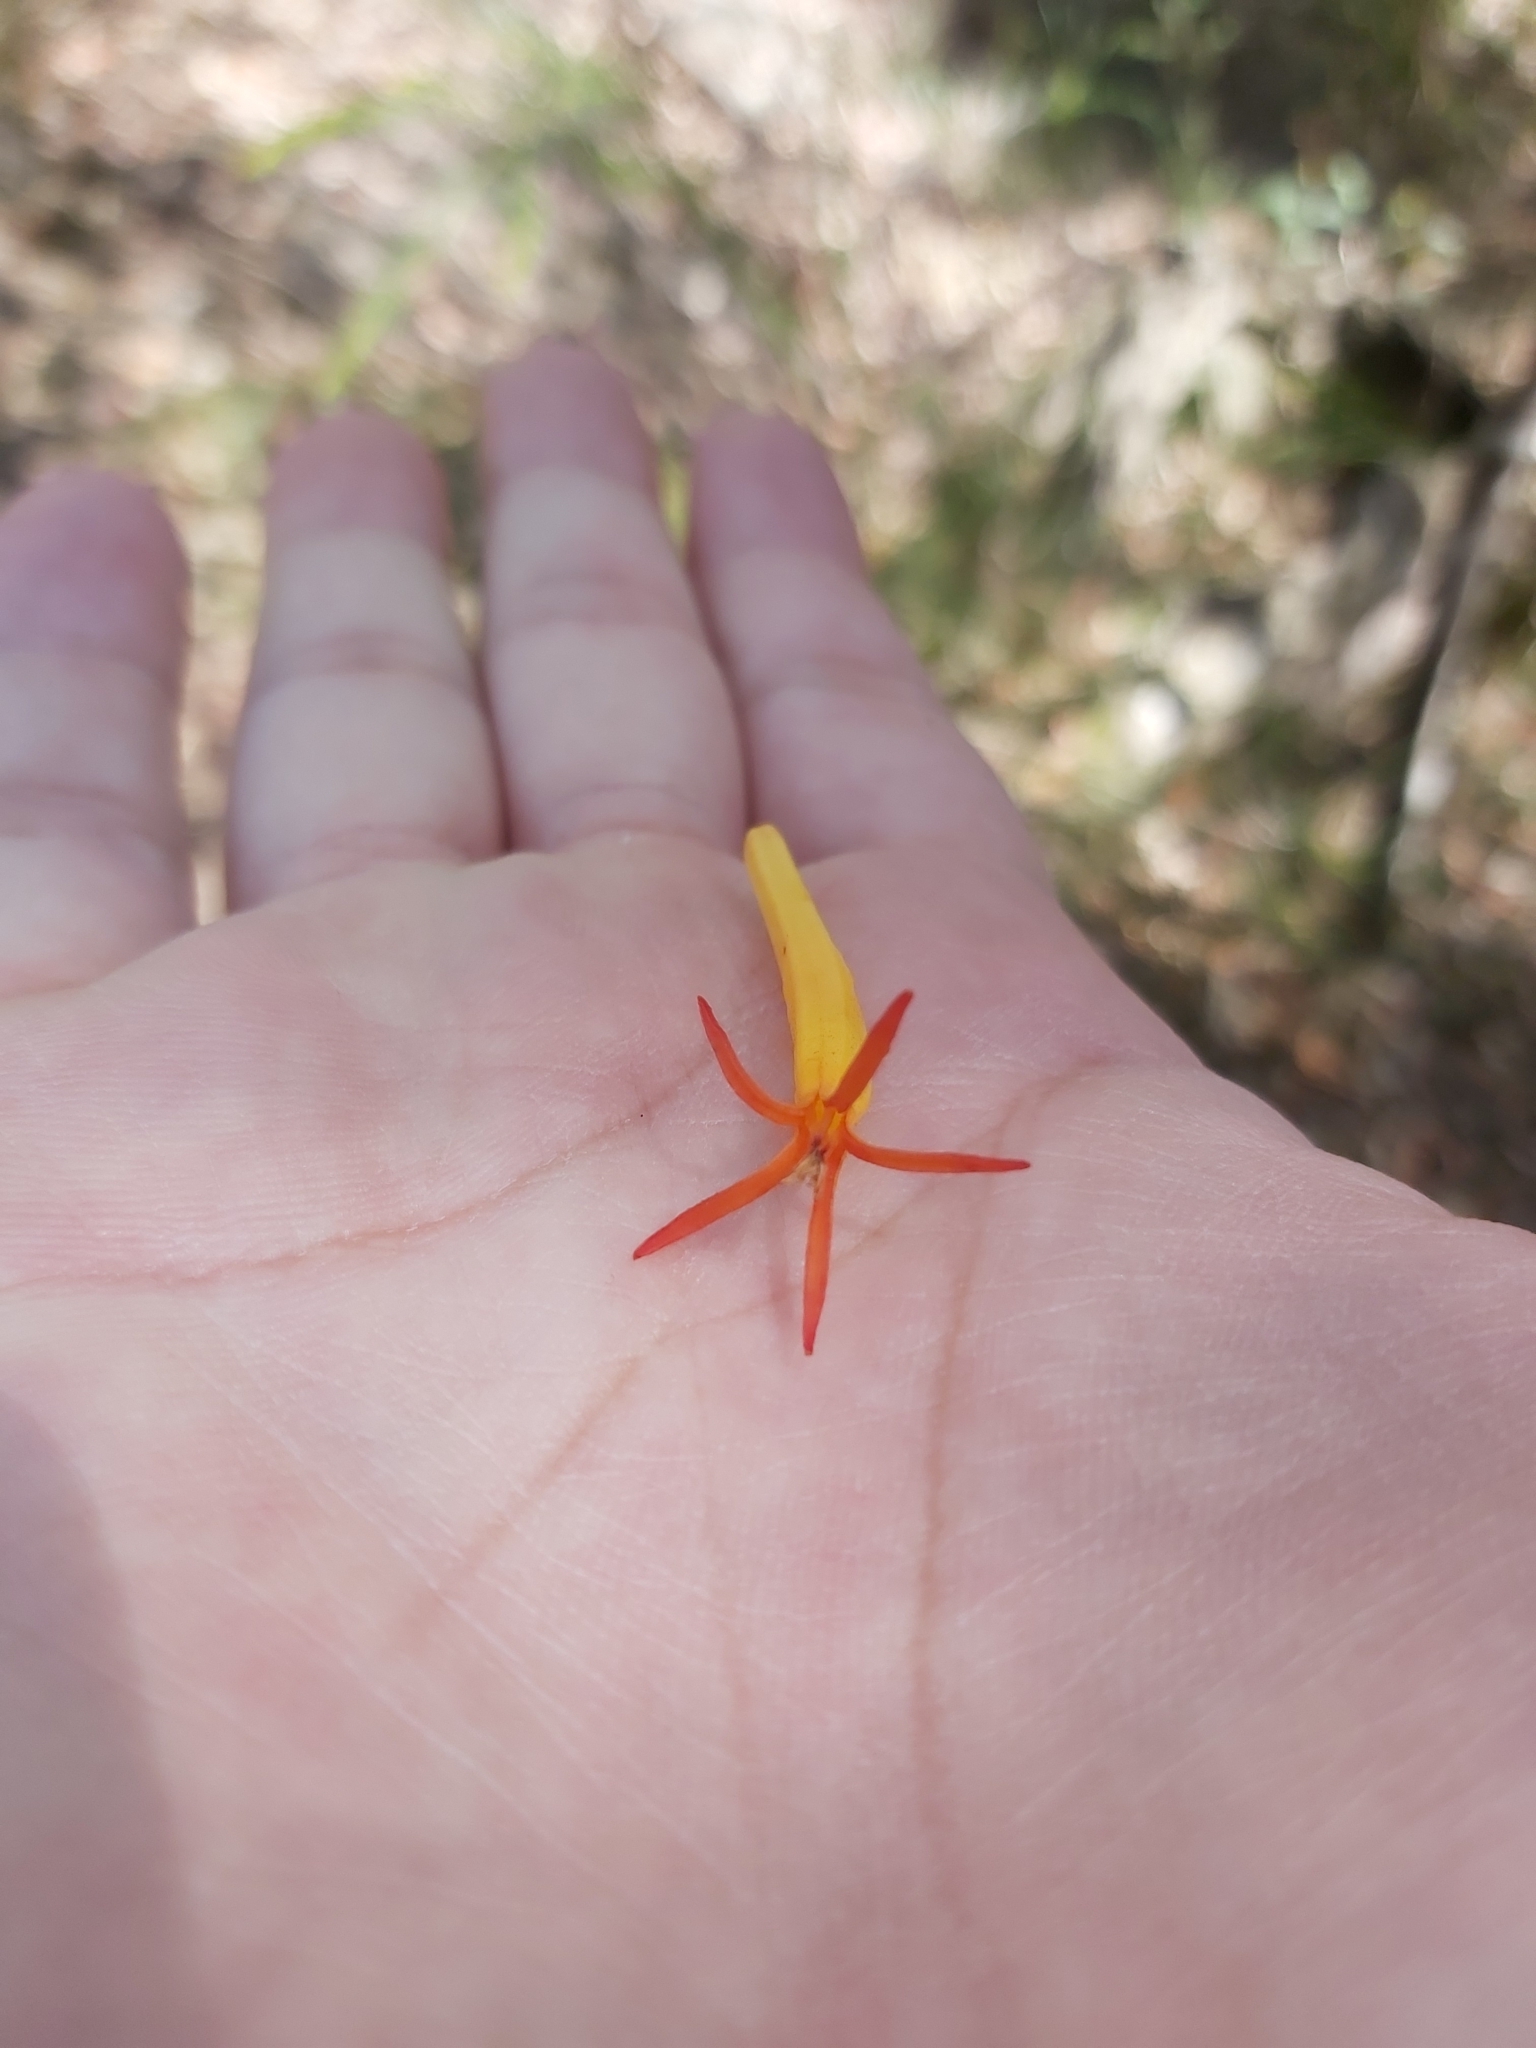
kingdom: Plantae
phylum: Tracheophyta
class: Magnoliopsida
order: Santalales
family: Loranthaceae
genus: Dendrophthoe
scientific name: Dendrophthoe vitellina
